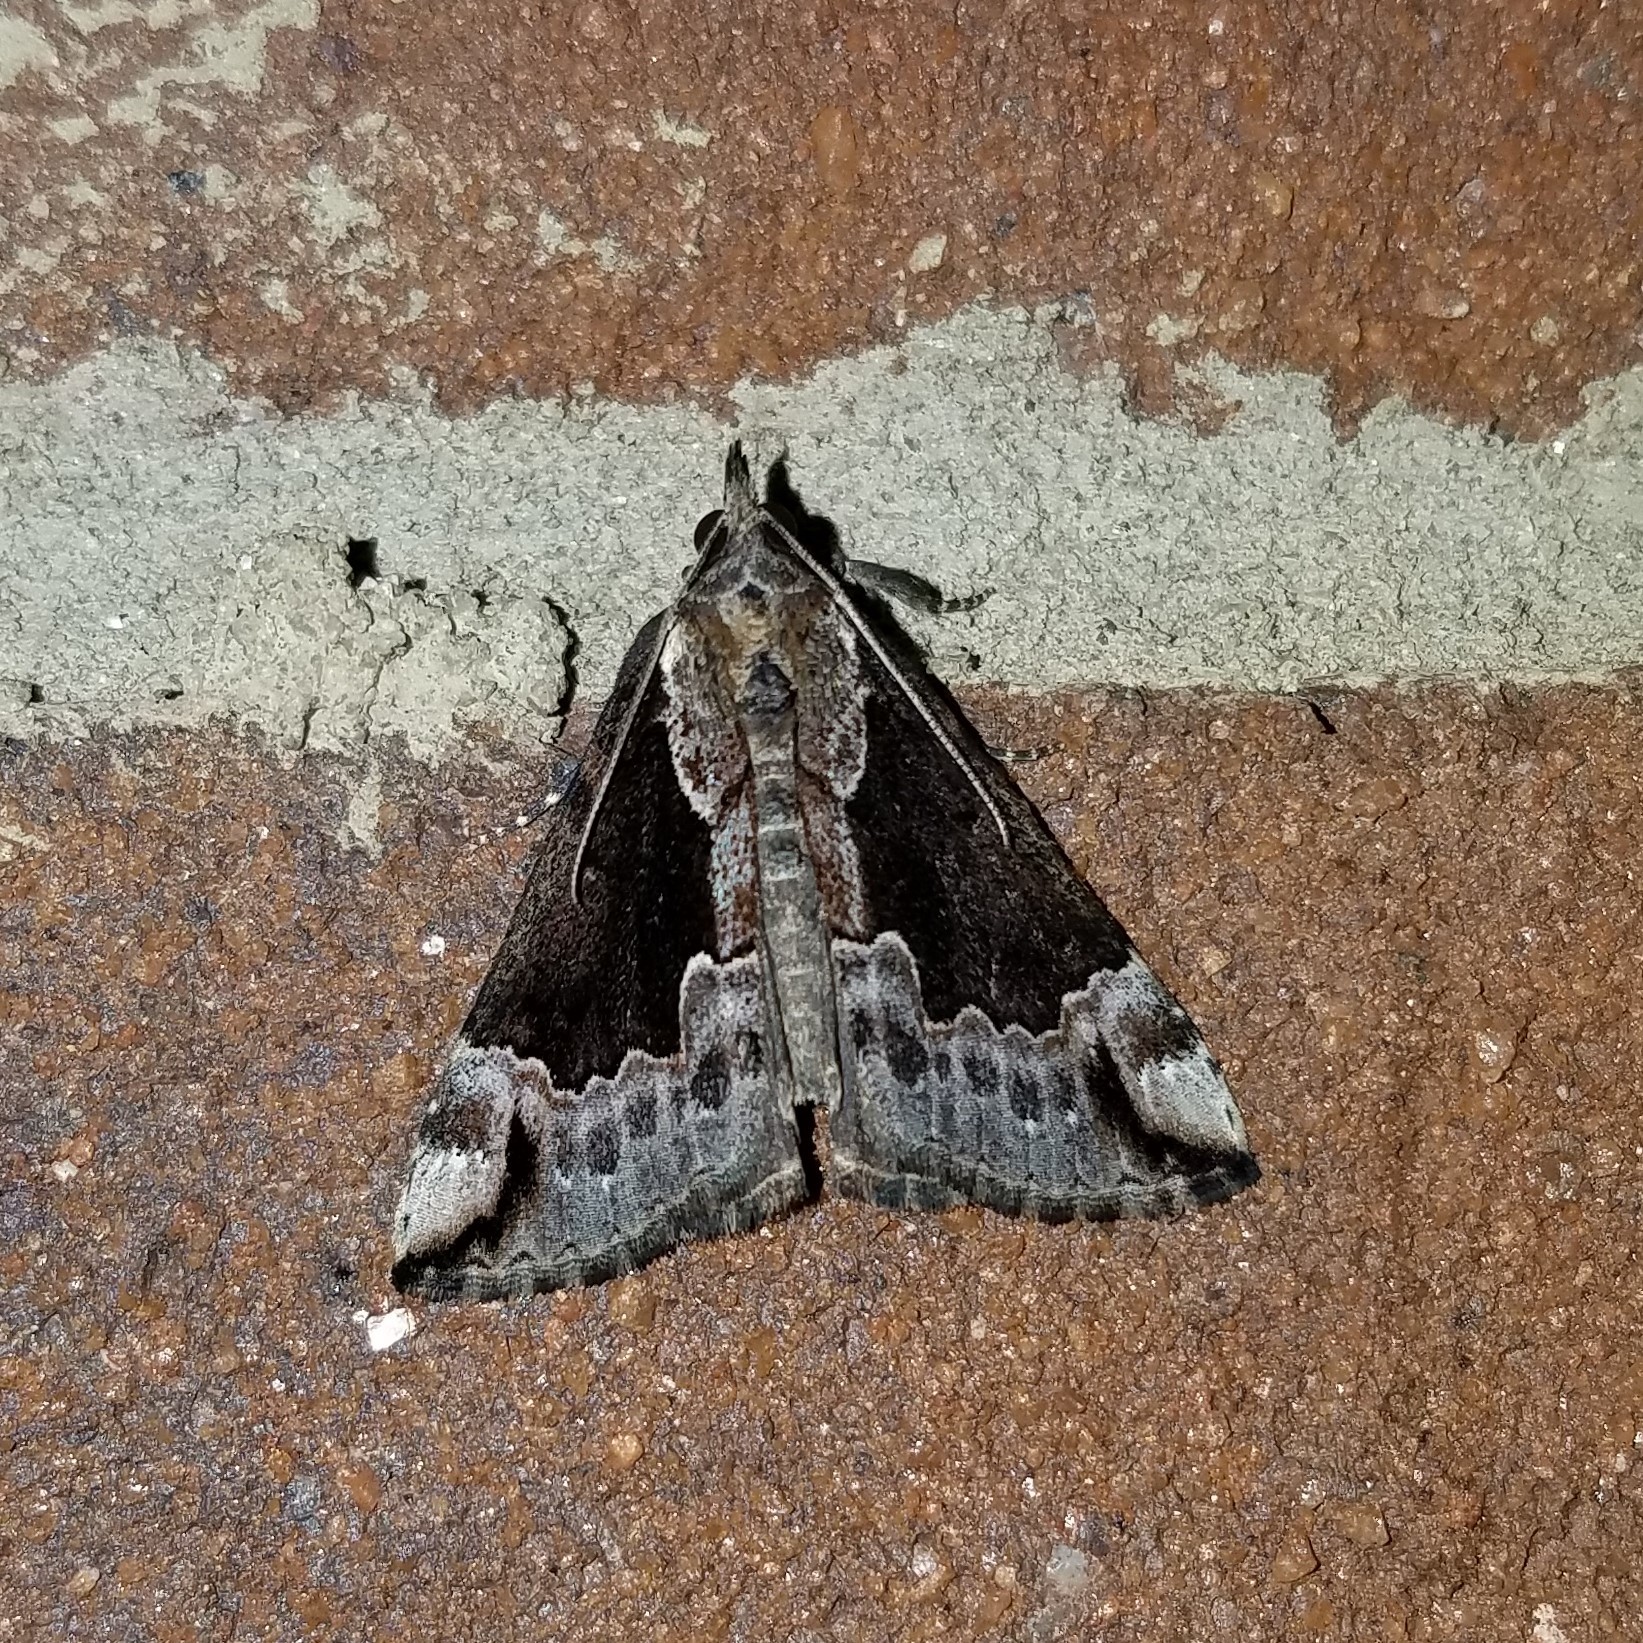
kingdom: Animalia
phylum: Arthropoda
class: Insecta
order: Lepidoptera
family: Erebidae
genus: Hypena
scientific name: Hypena baltimoralis
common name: Baltimore snout
